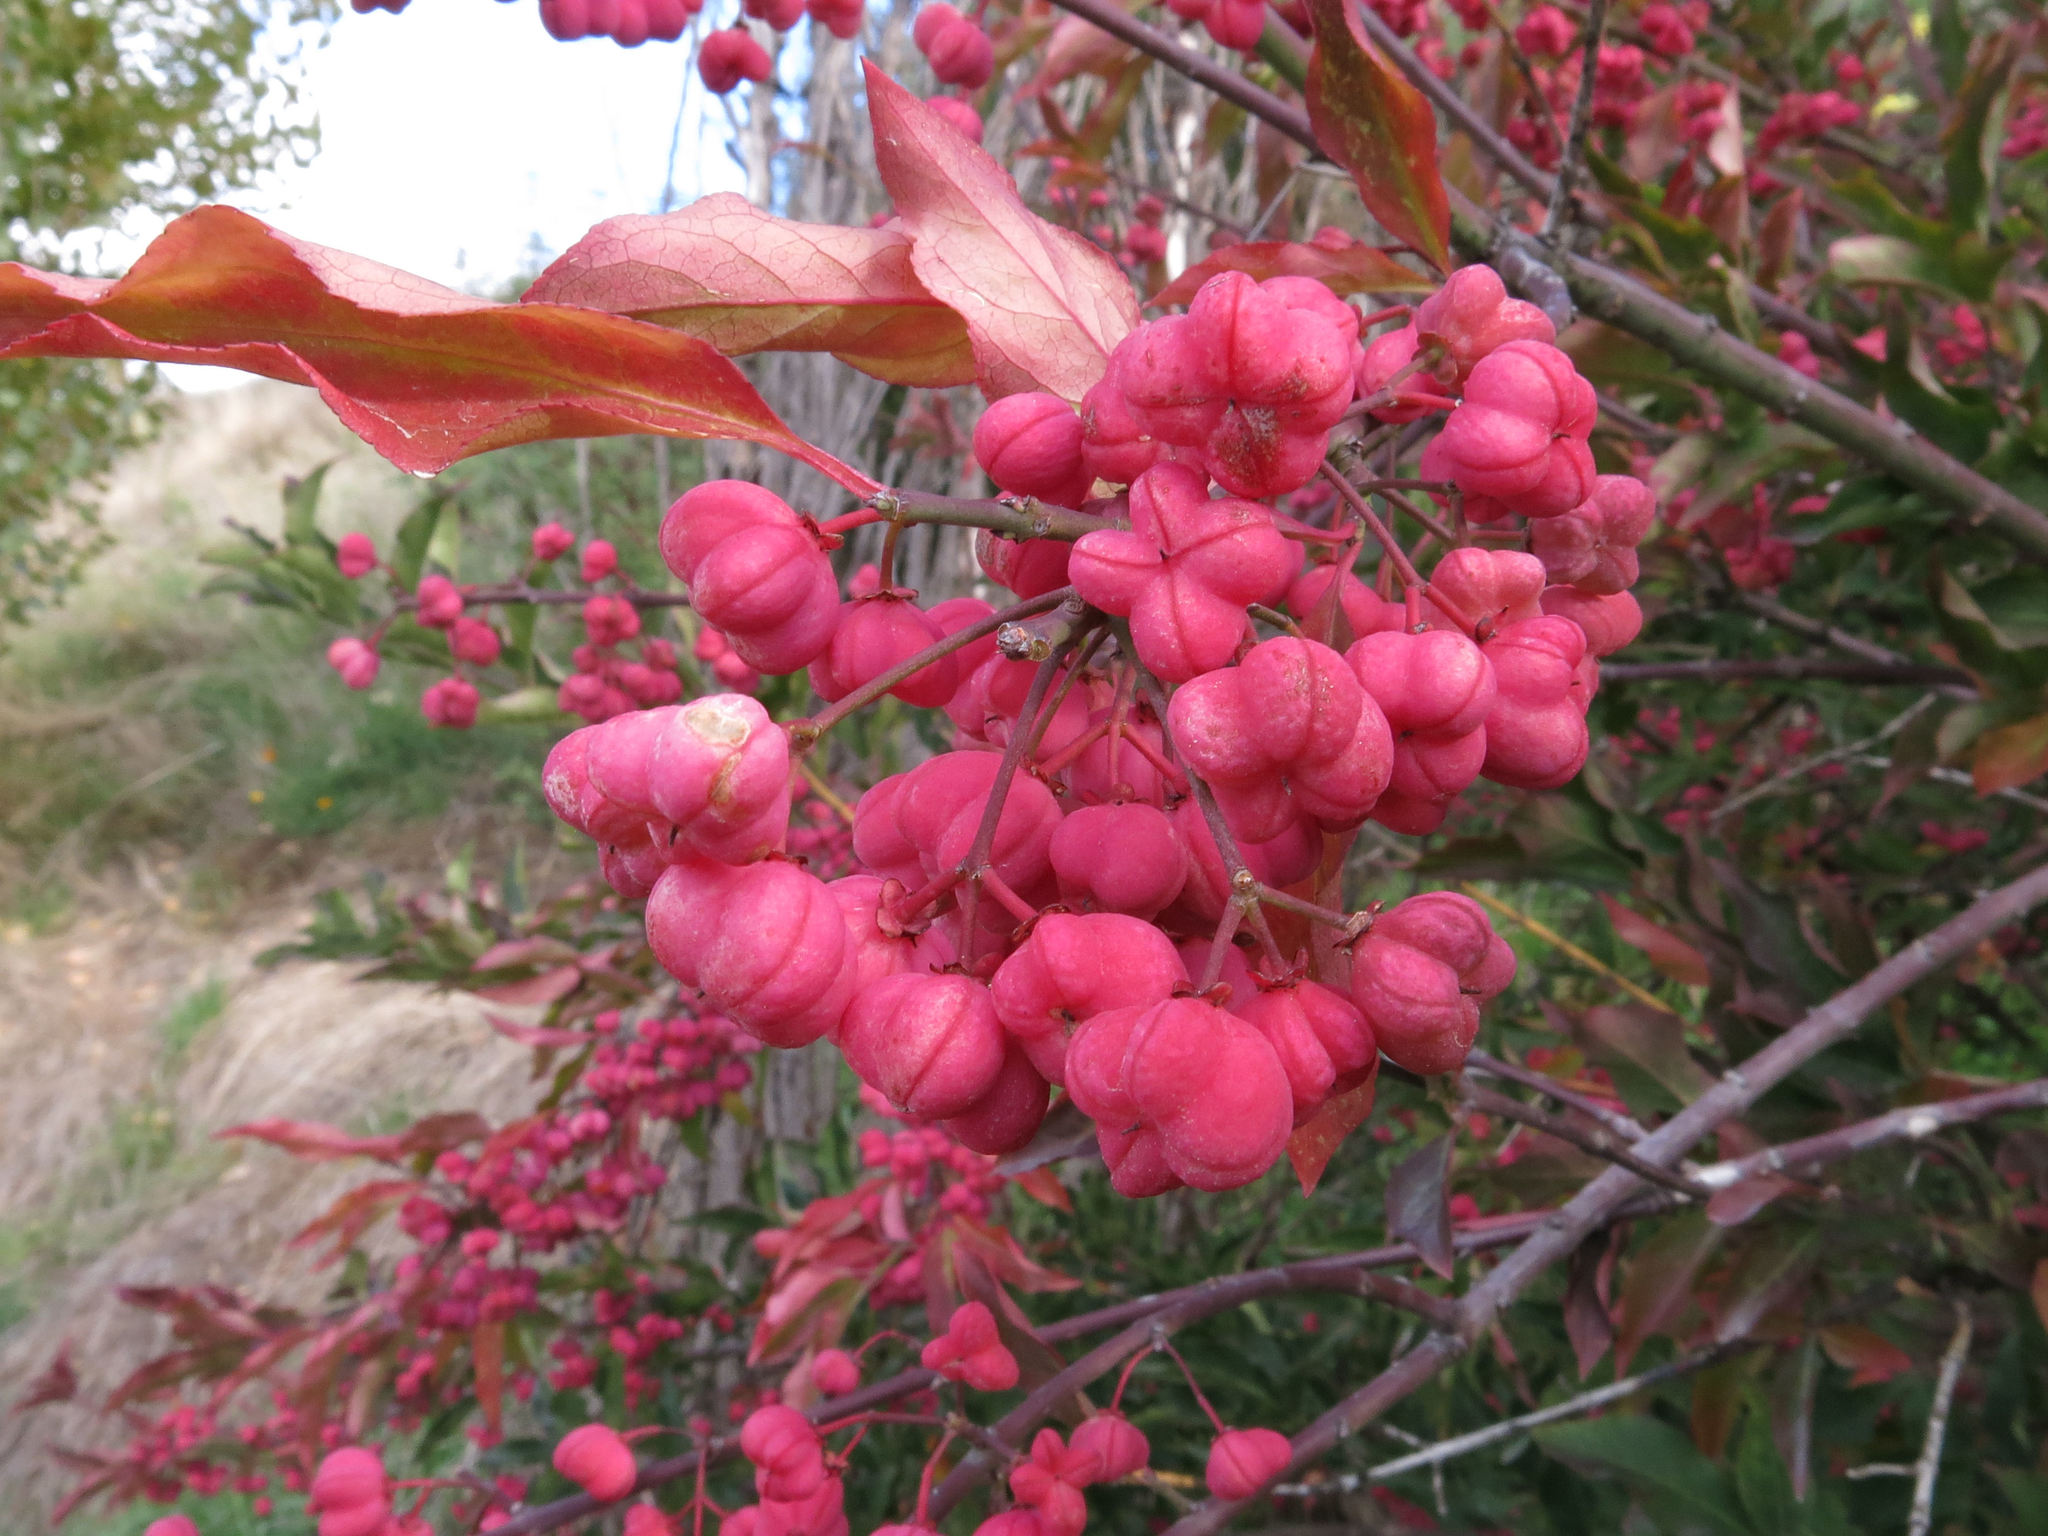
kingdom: Plantae
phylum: Tracheophyta
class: Magnoliopsida
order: Celastrales
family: Celastraceae
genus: Euonymus
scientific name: Euonymus europaeus
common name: Spindle
